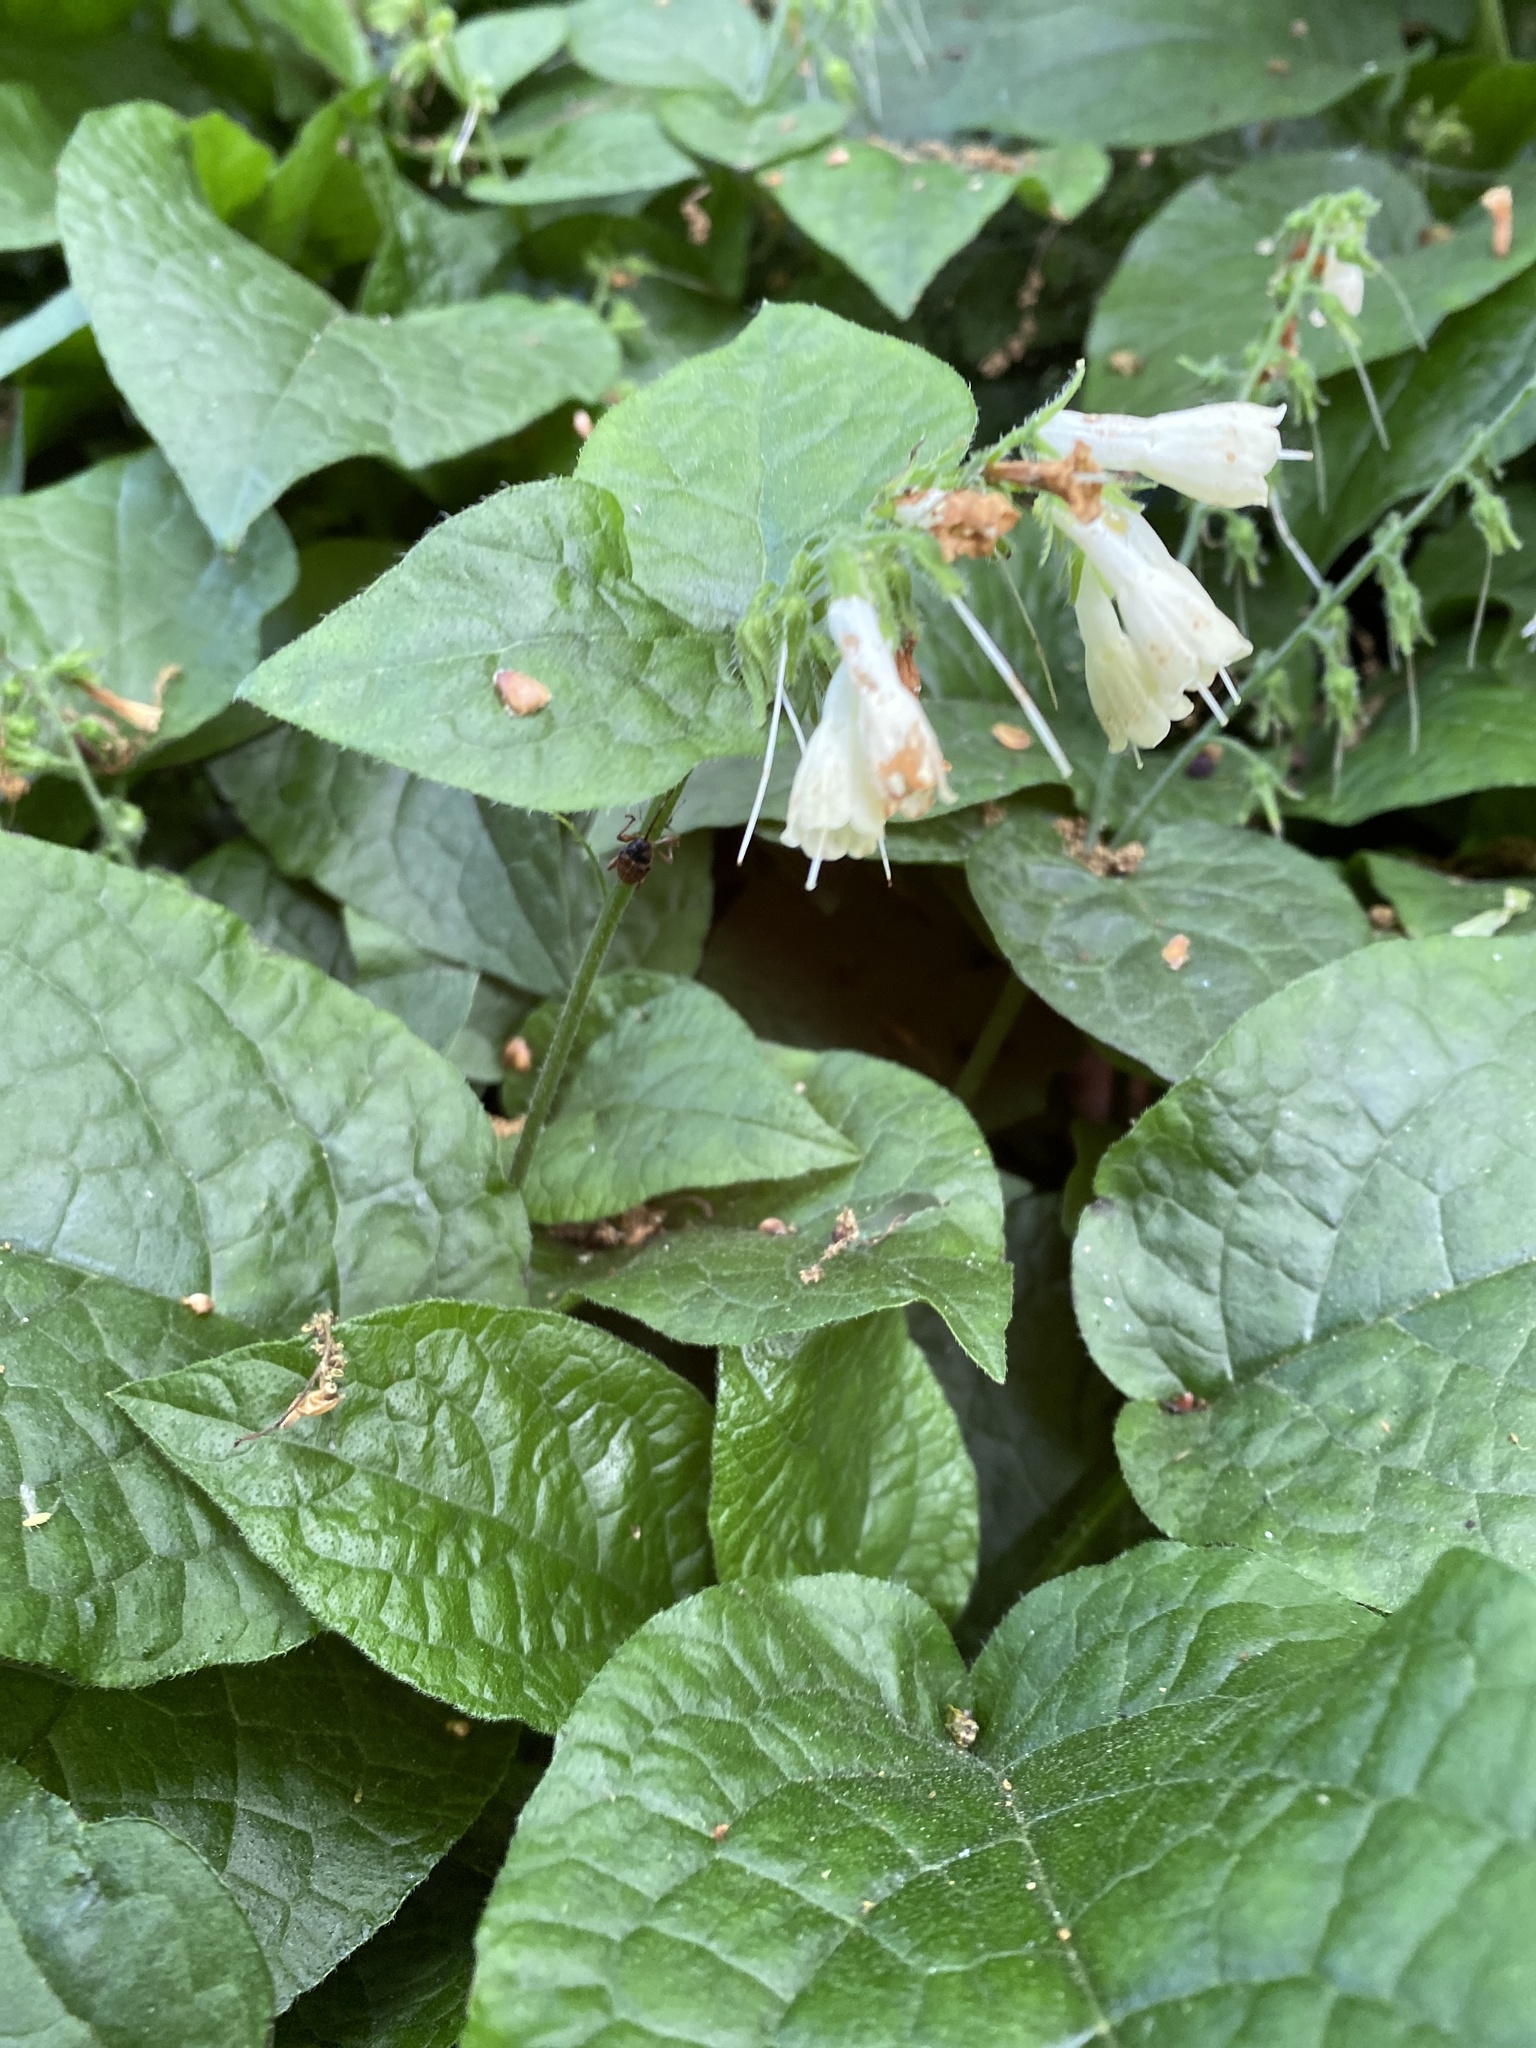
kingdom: Plantae
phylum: Tracheophyta
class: Magnoliopsida
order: Boraginales
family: Boraginaceae
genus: Symphytum
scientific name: Symphytum grandiflorum
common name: Creeping comfrey
